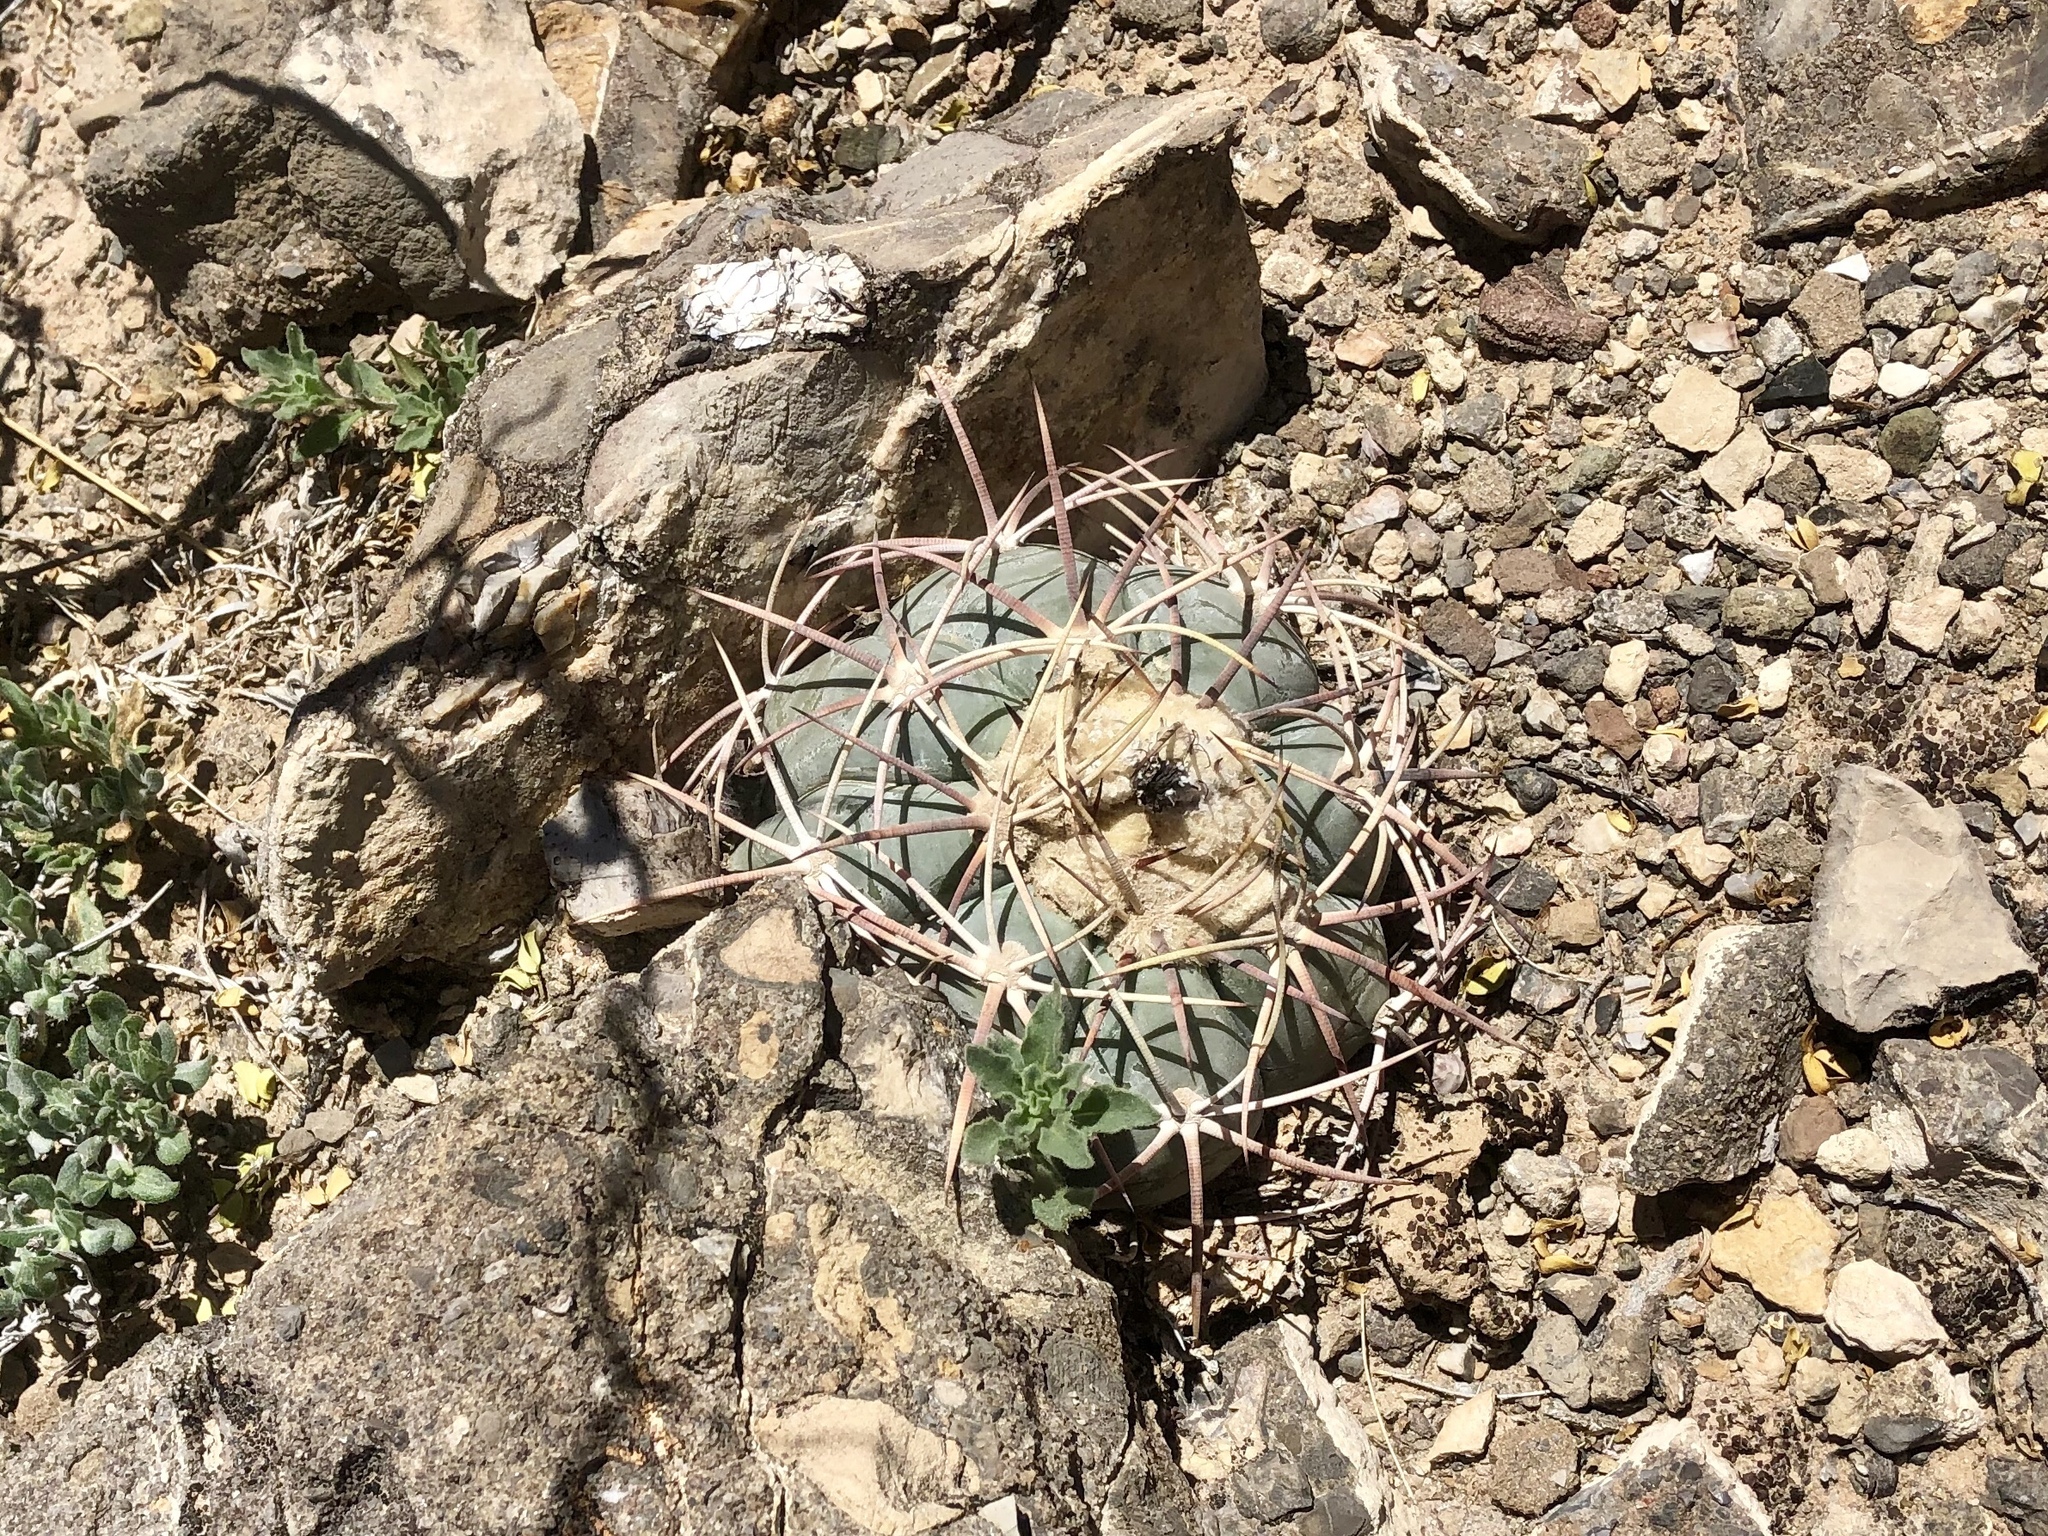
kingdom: Plantae
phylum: Tracheophyta
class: Magnoliopsida
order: Caryophyllales
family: Cactaceae
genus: Echinocactus
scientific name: Echinocactus horizonthalonius
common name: Devilshead
